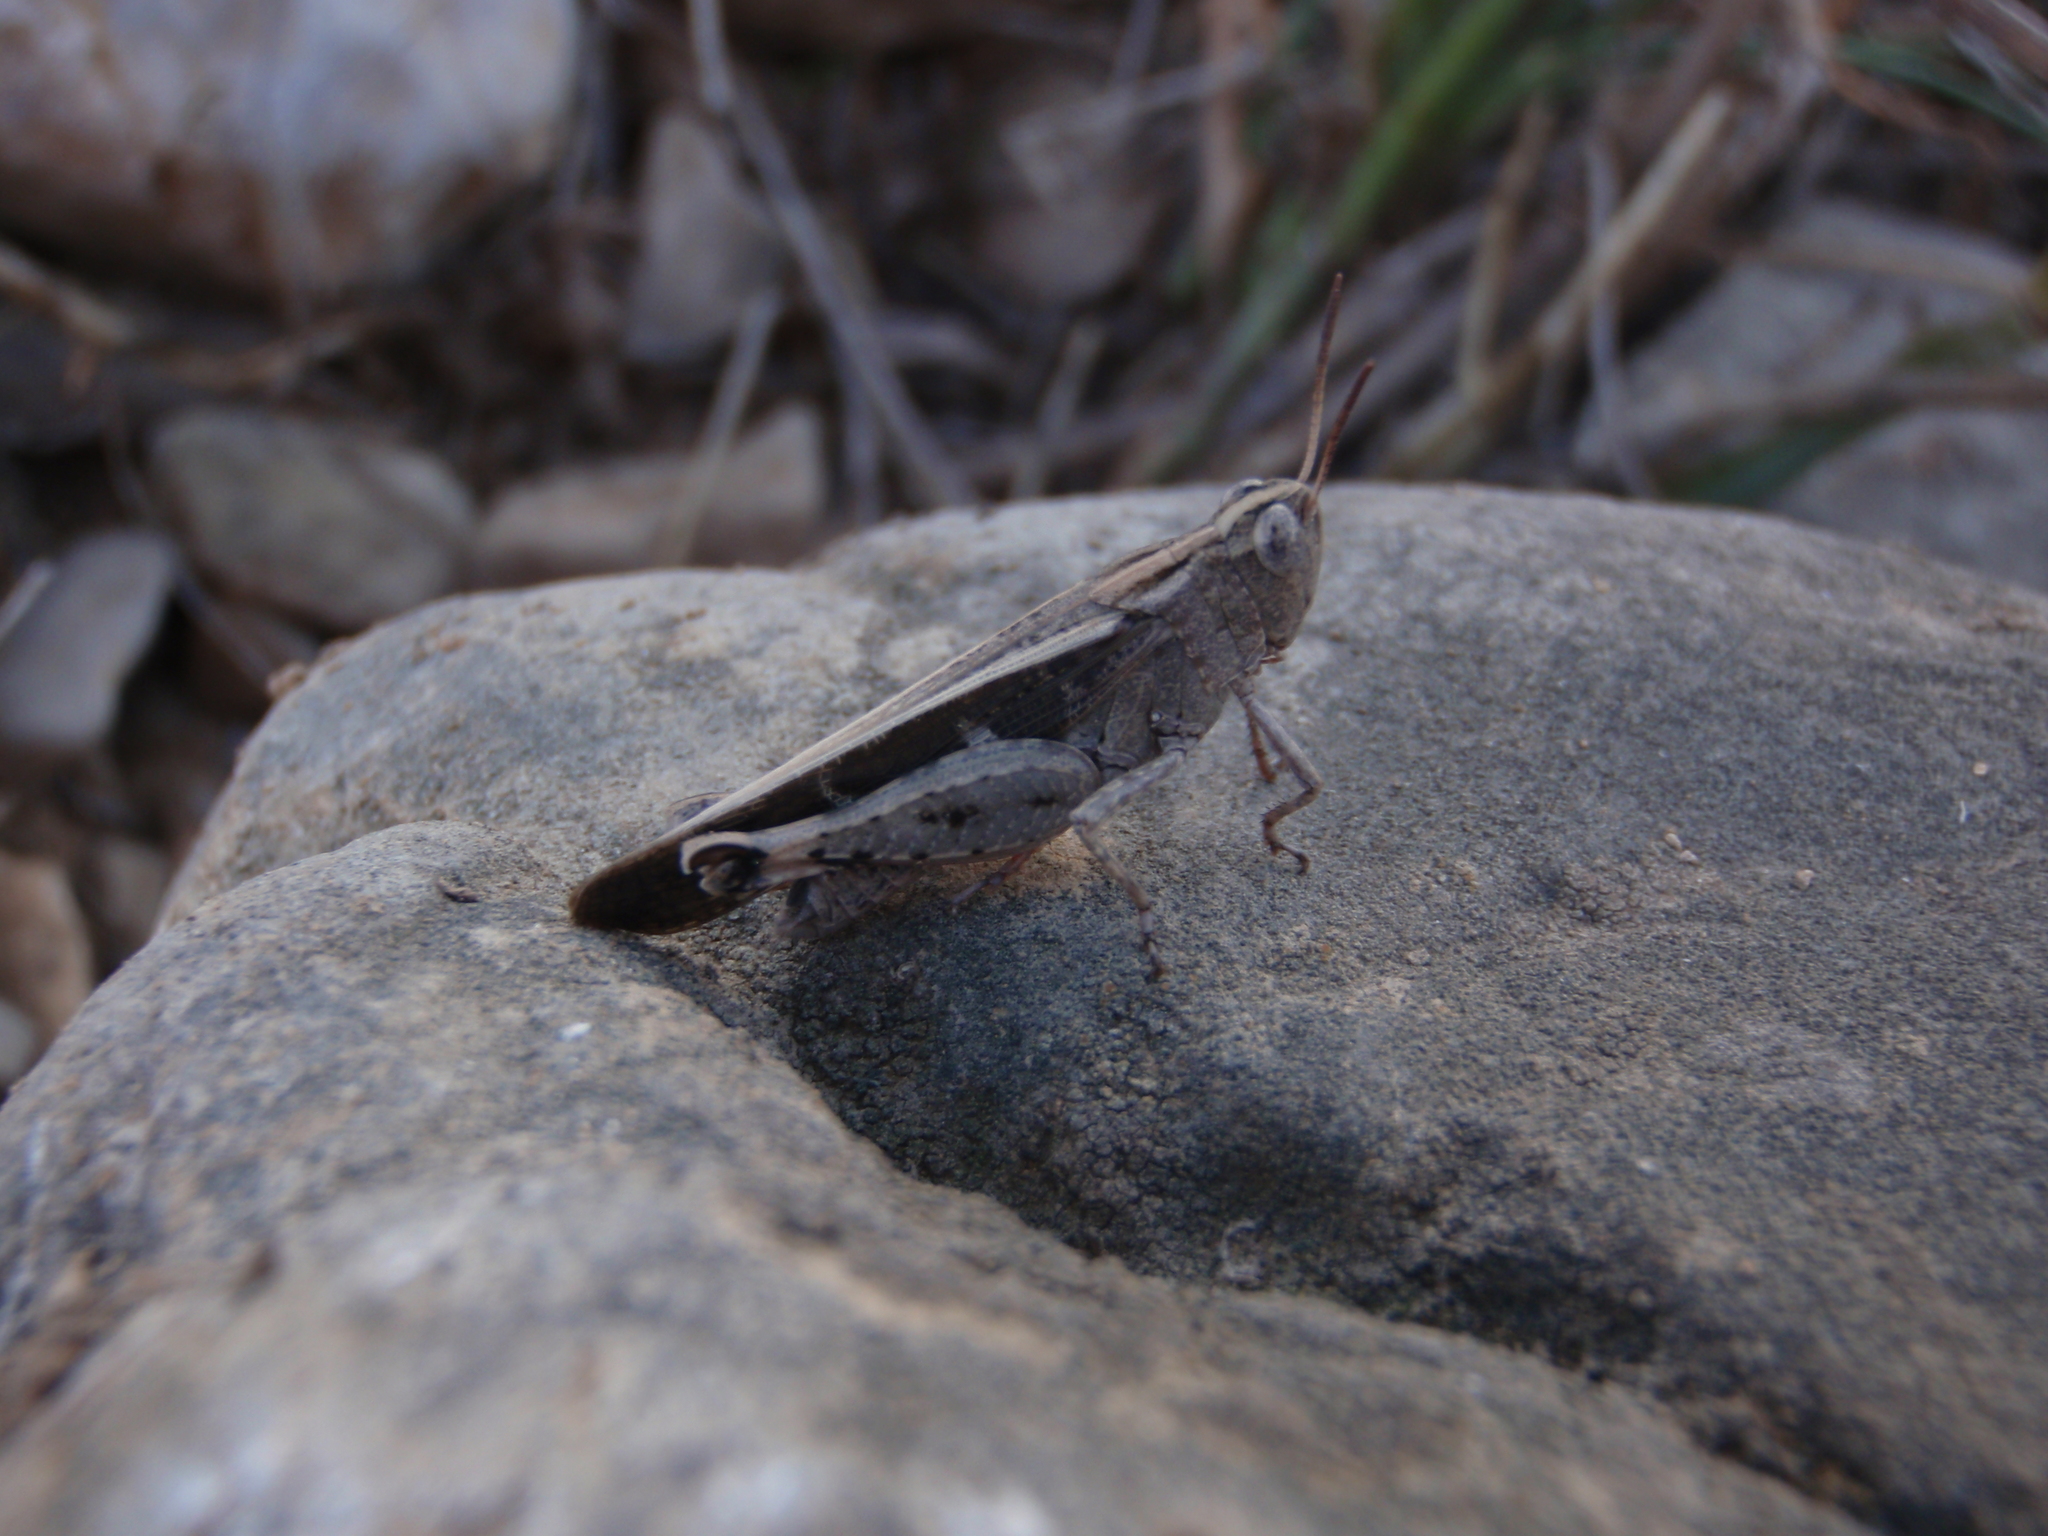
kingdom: Animalia
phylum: Arthropoda
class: Insecta
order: Orthoptera
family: Acrididae
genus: Aiolopus
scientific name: Aiolopus strepens
